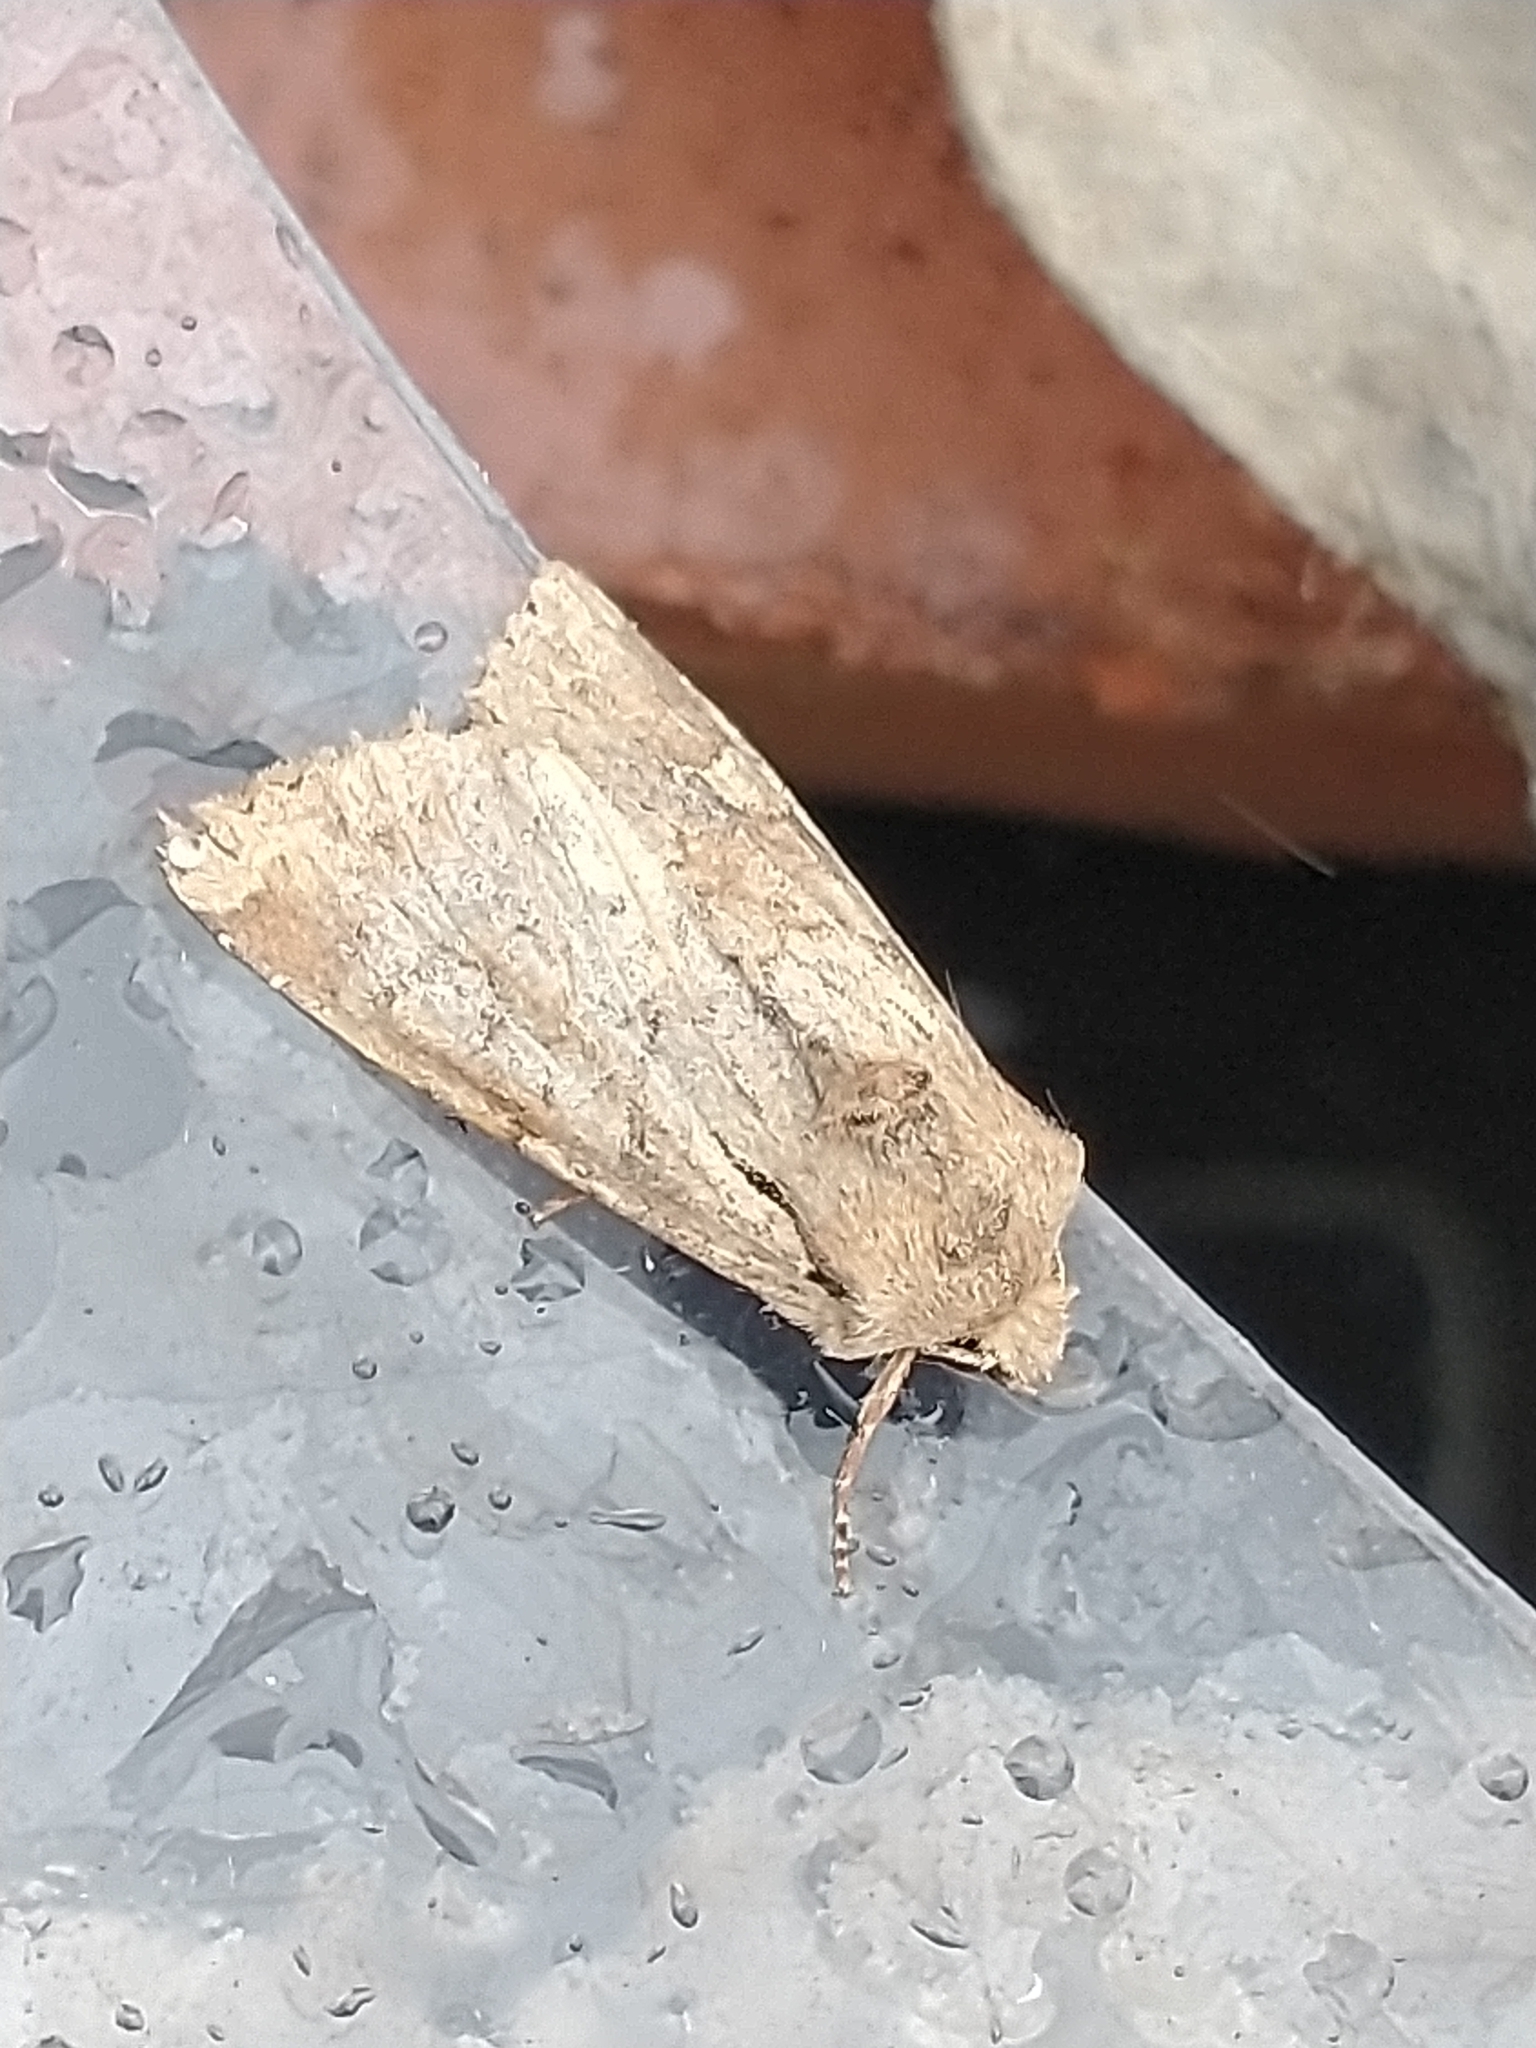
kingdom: Animalia
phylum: Arthropoda
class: Insecta
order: Lepidoptera
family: Noctuidae
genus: Apamea
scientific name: Apamea sordens
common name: Rustic shoulder-knot
